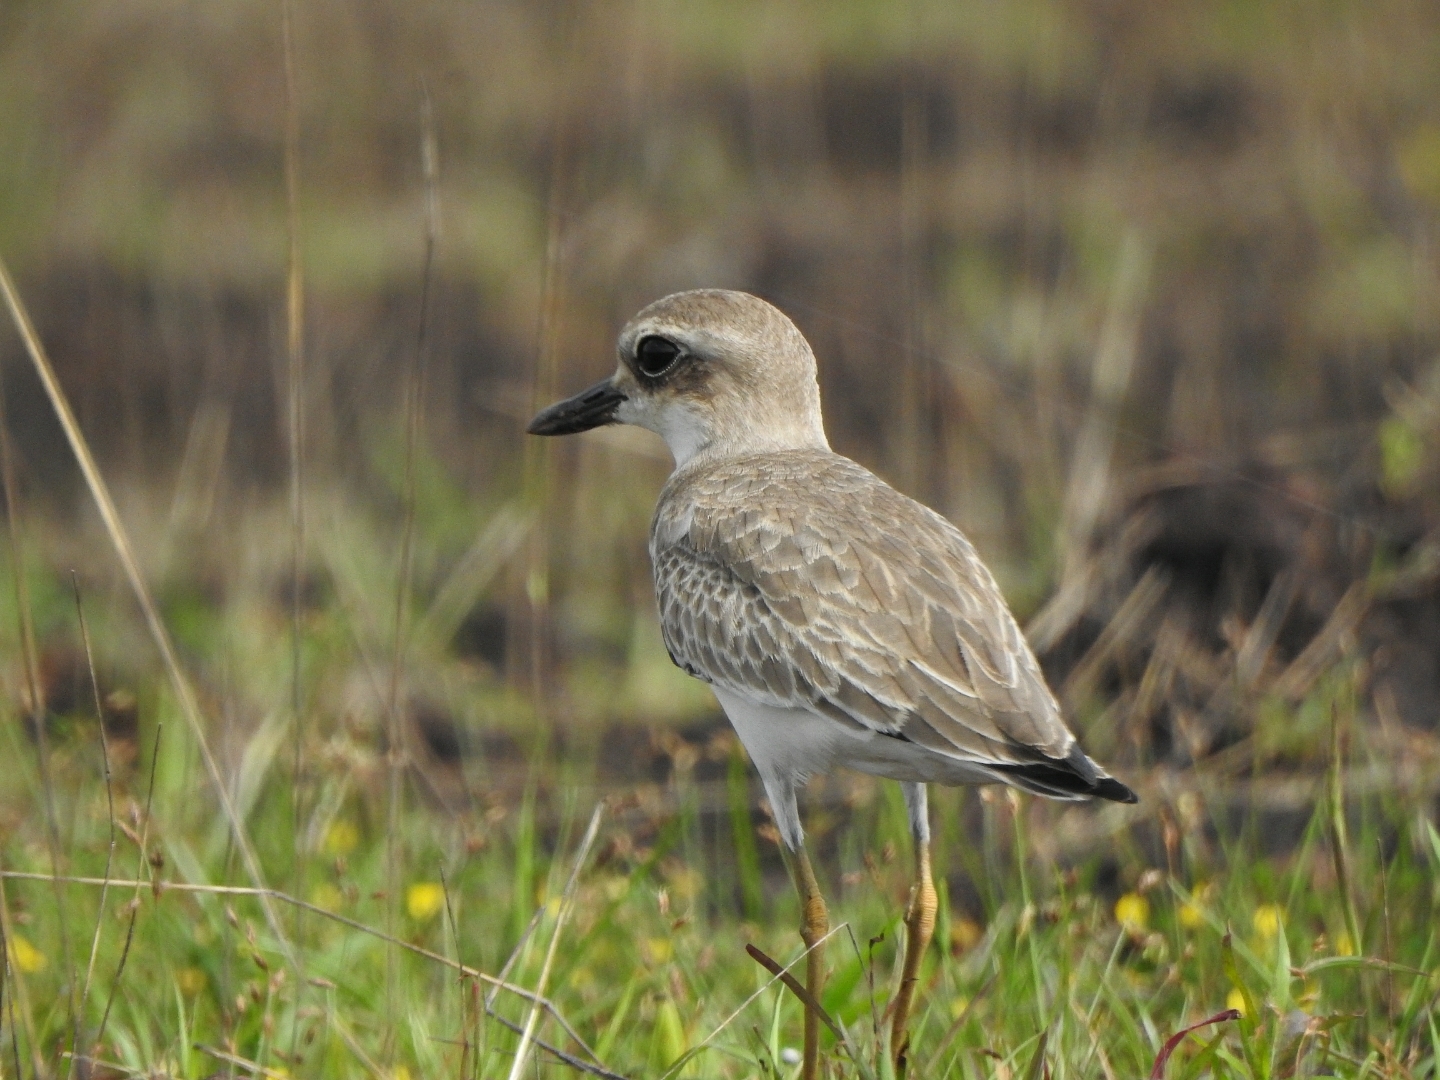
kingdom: Animalia
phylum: Chordata
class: Aves
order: Charadriiformes
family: Charadriidae
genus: Charadrius
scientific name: Charadrius leschenaultii
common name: Greater sand plover
